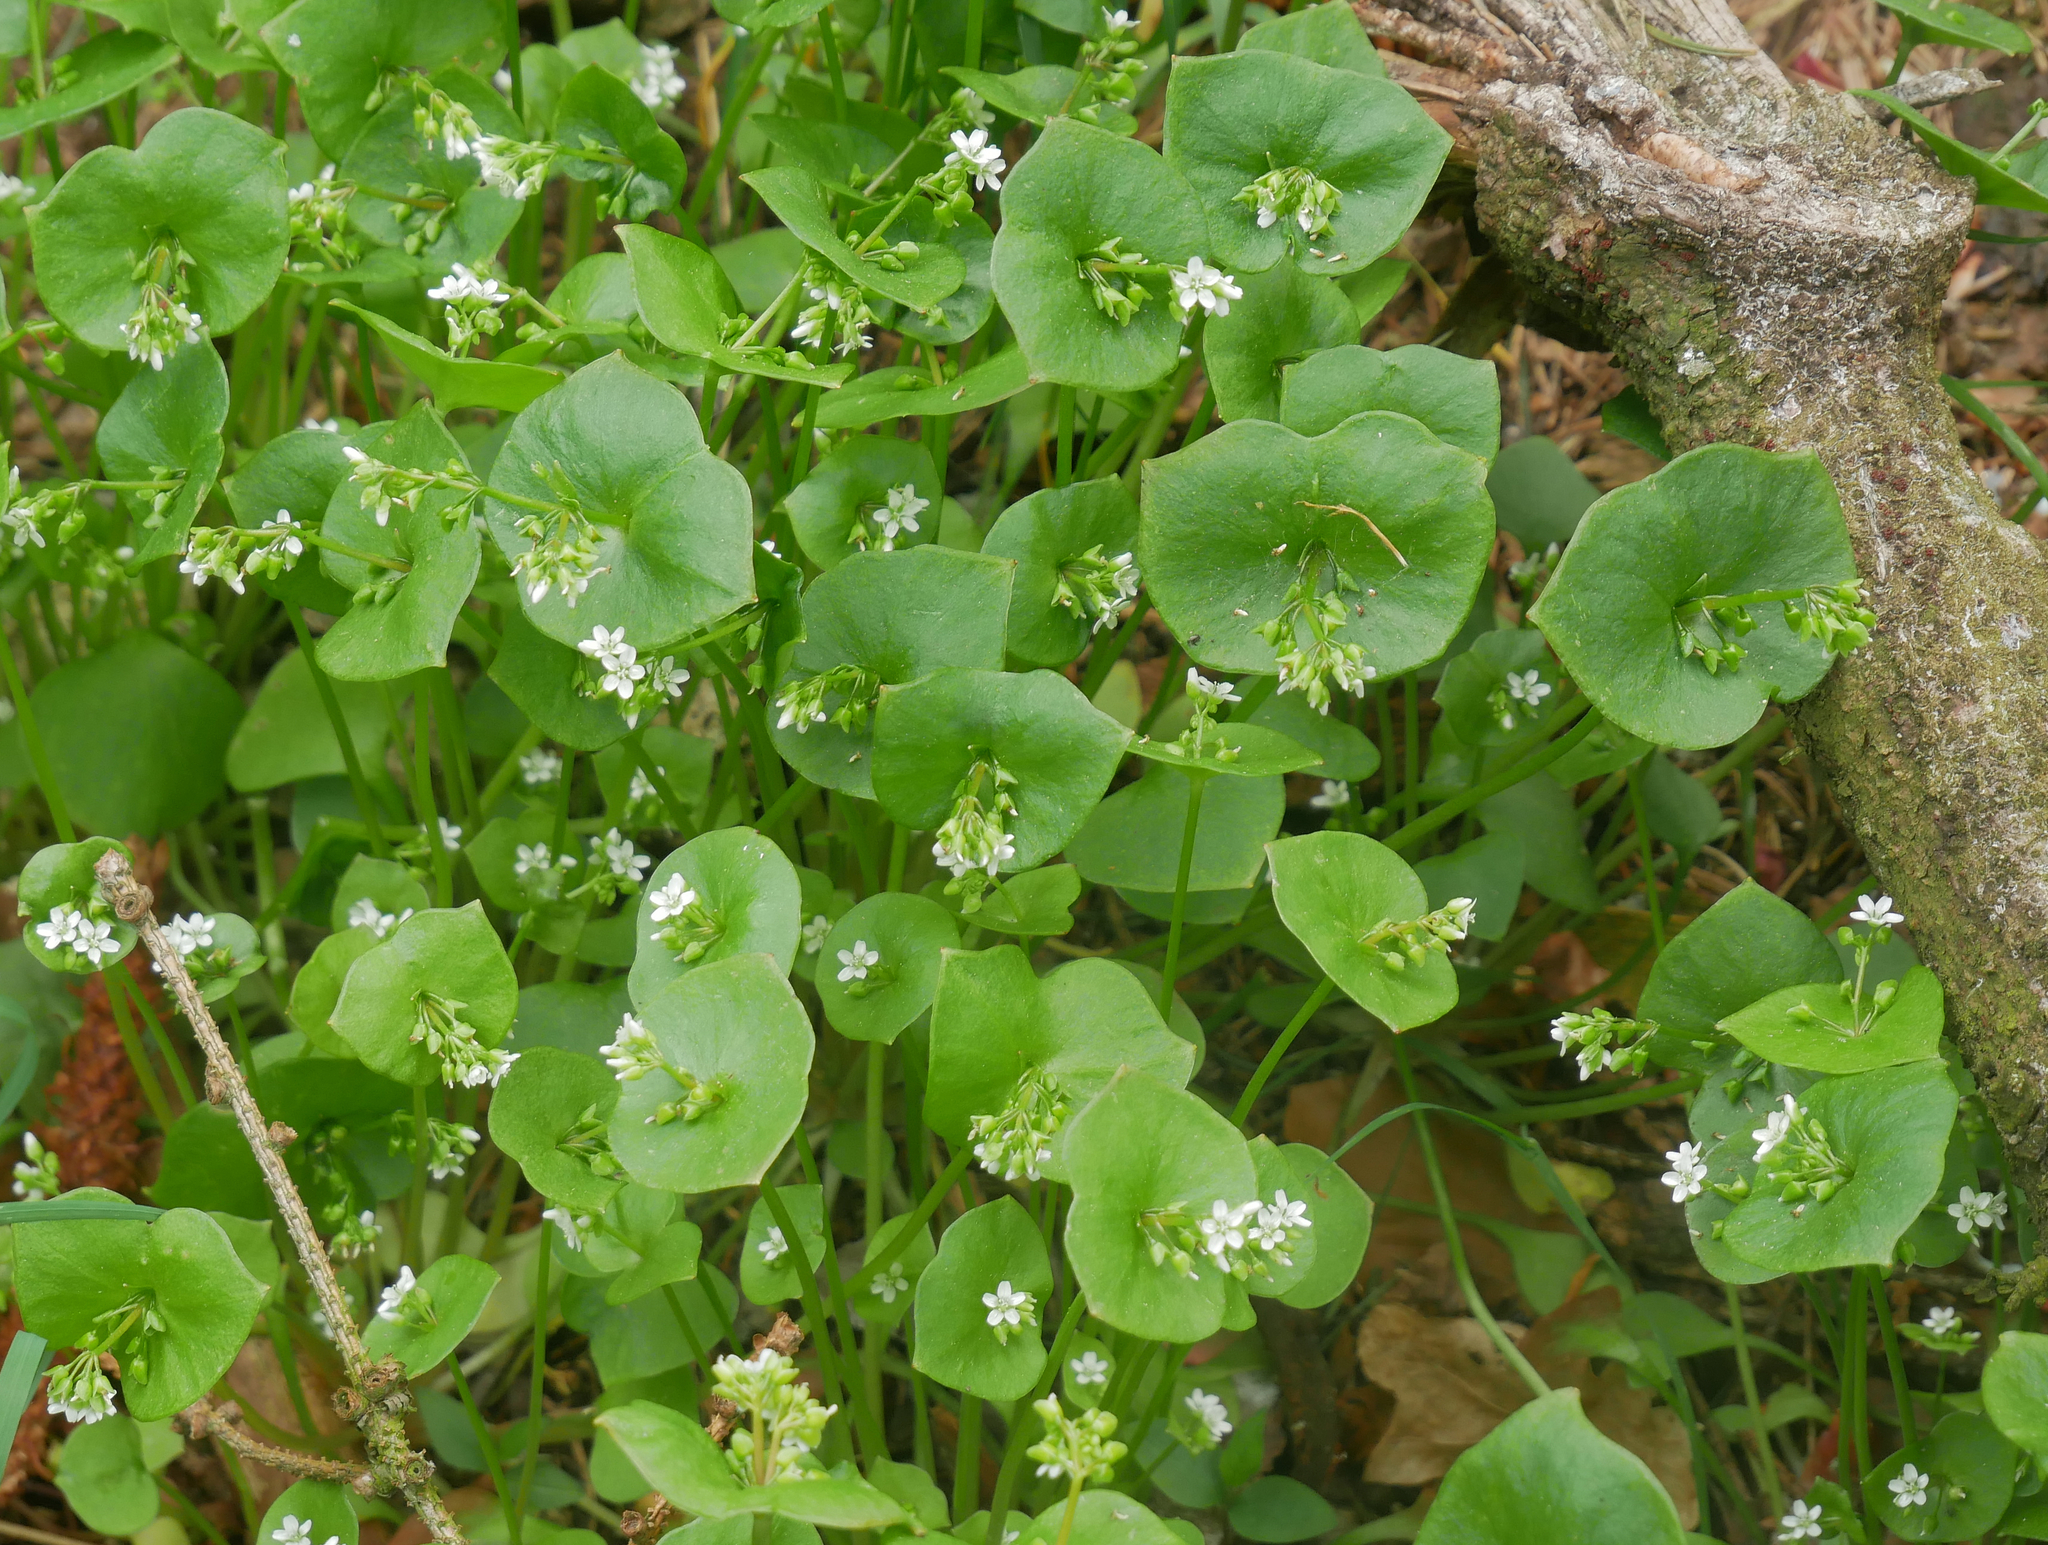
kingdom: Plantae
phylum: Tracheophyta
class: Magnoliopsida
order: Caryophyllales
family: Montiaceae
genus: Claytonia
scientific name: Claytonia perfoliata
